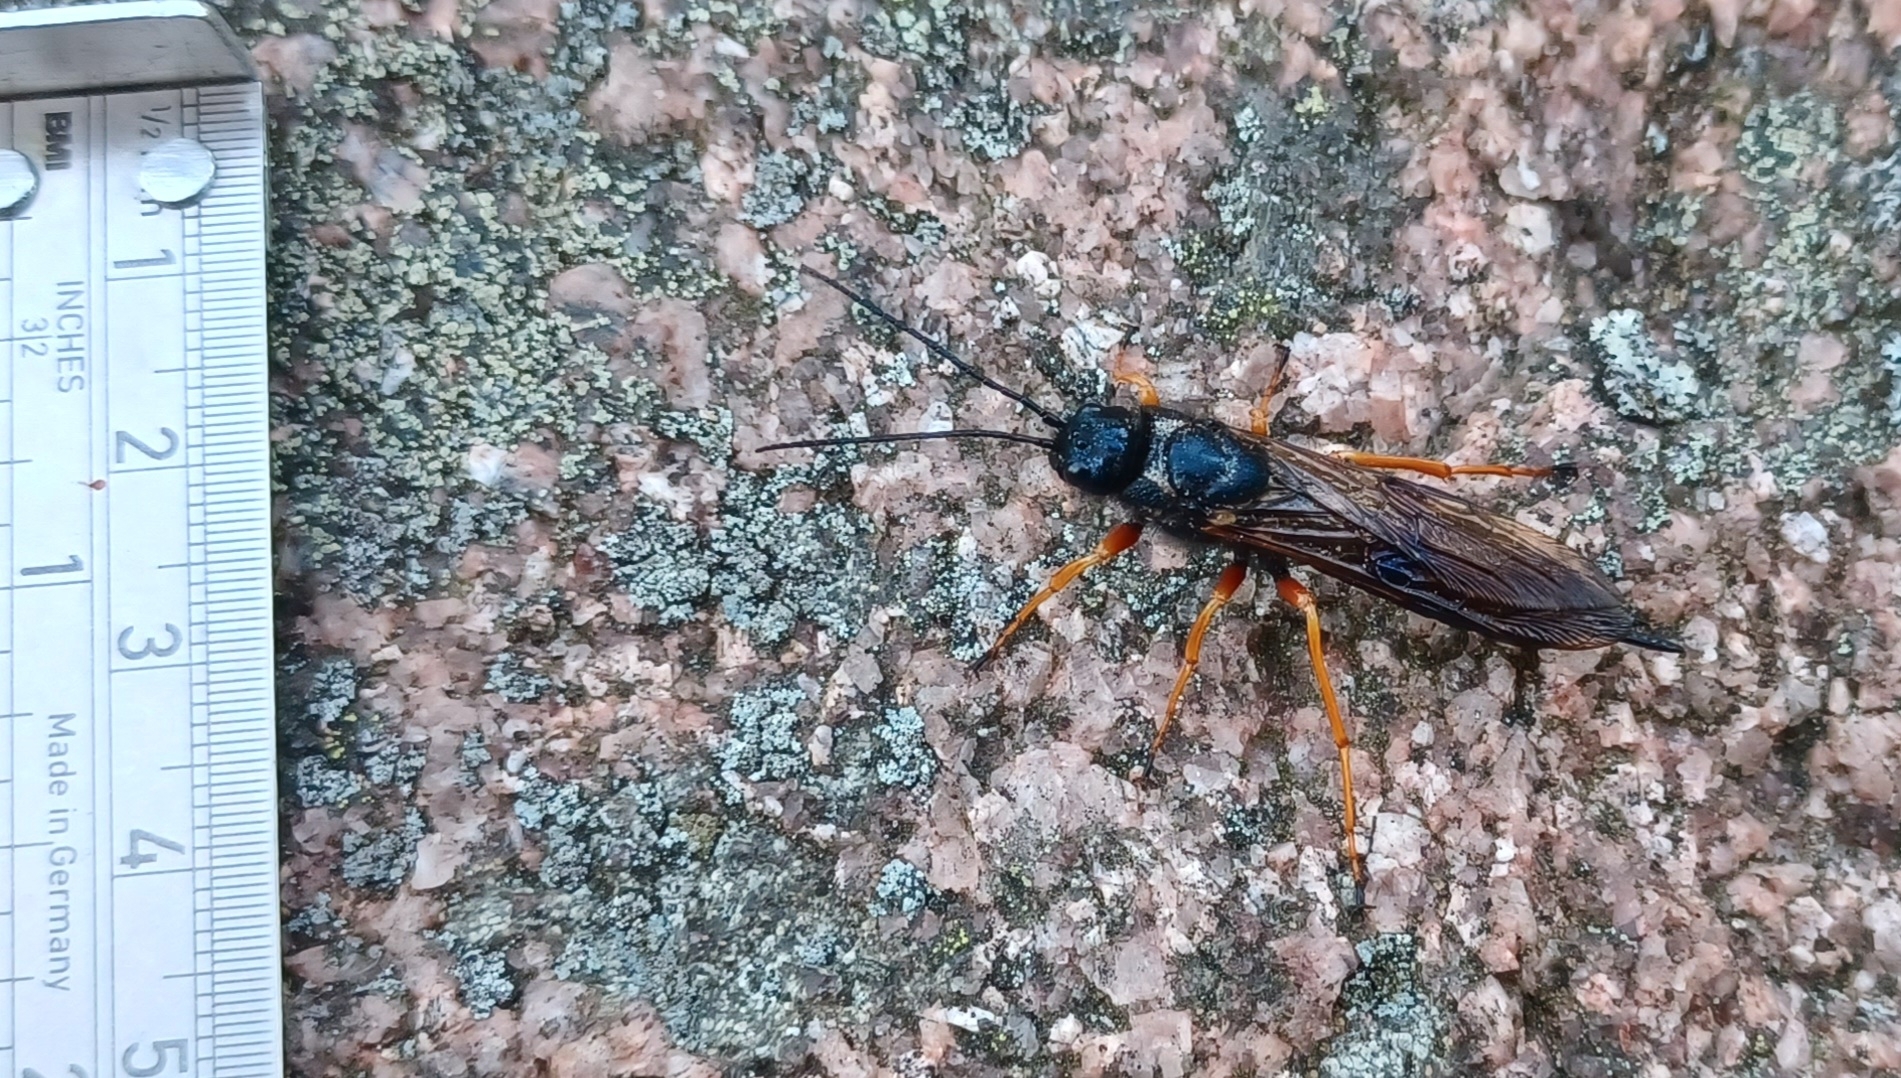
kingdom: Animalia
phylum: Arthropoda
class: Insecta
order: Hymenoptera
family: Siricidae
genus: Sirex
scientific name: Sirex noctilio
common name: Woodwasp
